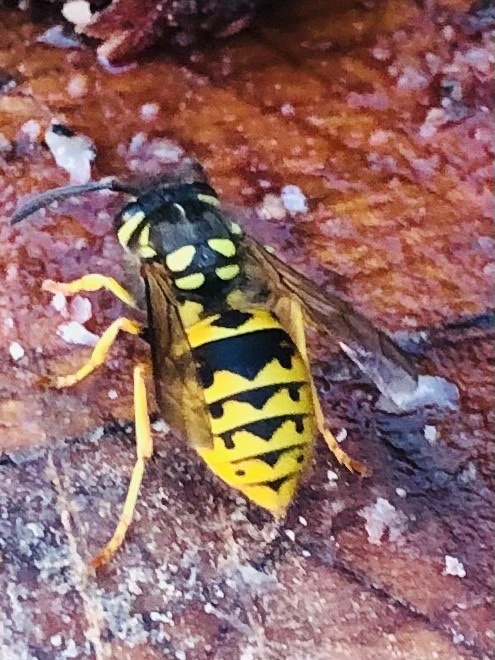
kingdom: Animalia
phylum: Arthropoda
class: Insecta
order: Hymenoptera
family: Vespidae
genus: Vespula
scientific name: Vespula germanica
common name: German wasp
